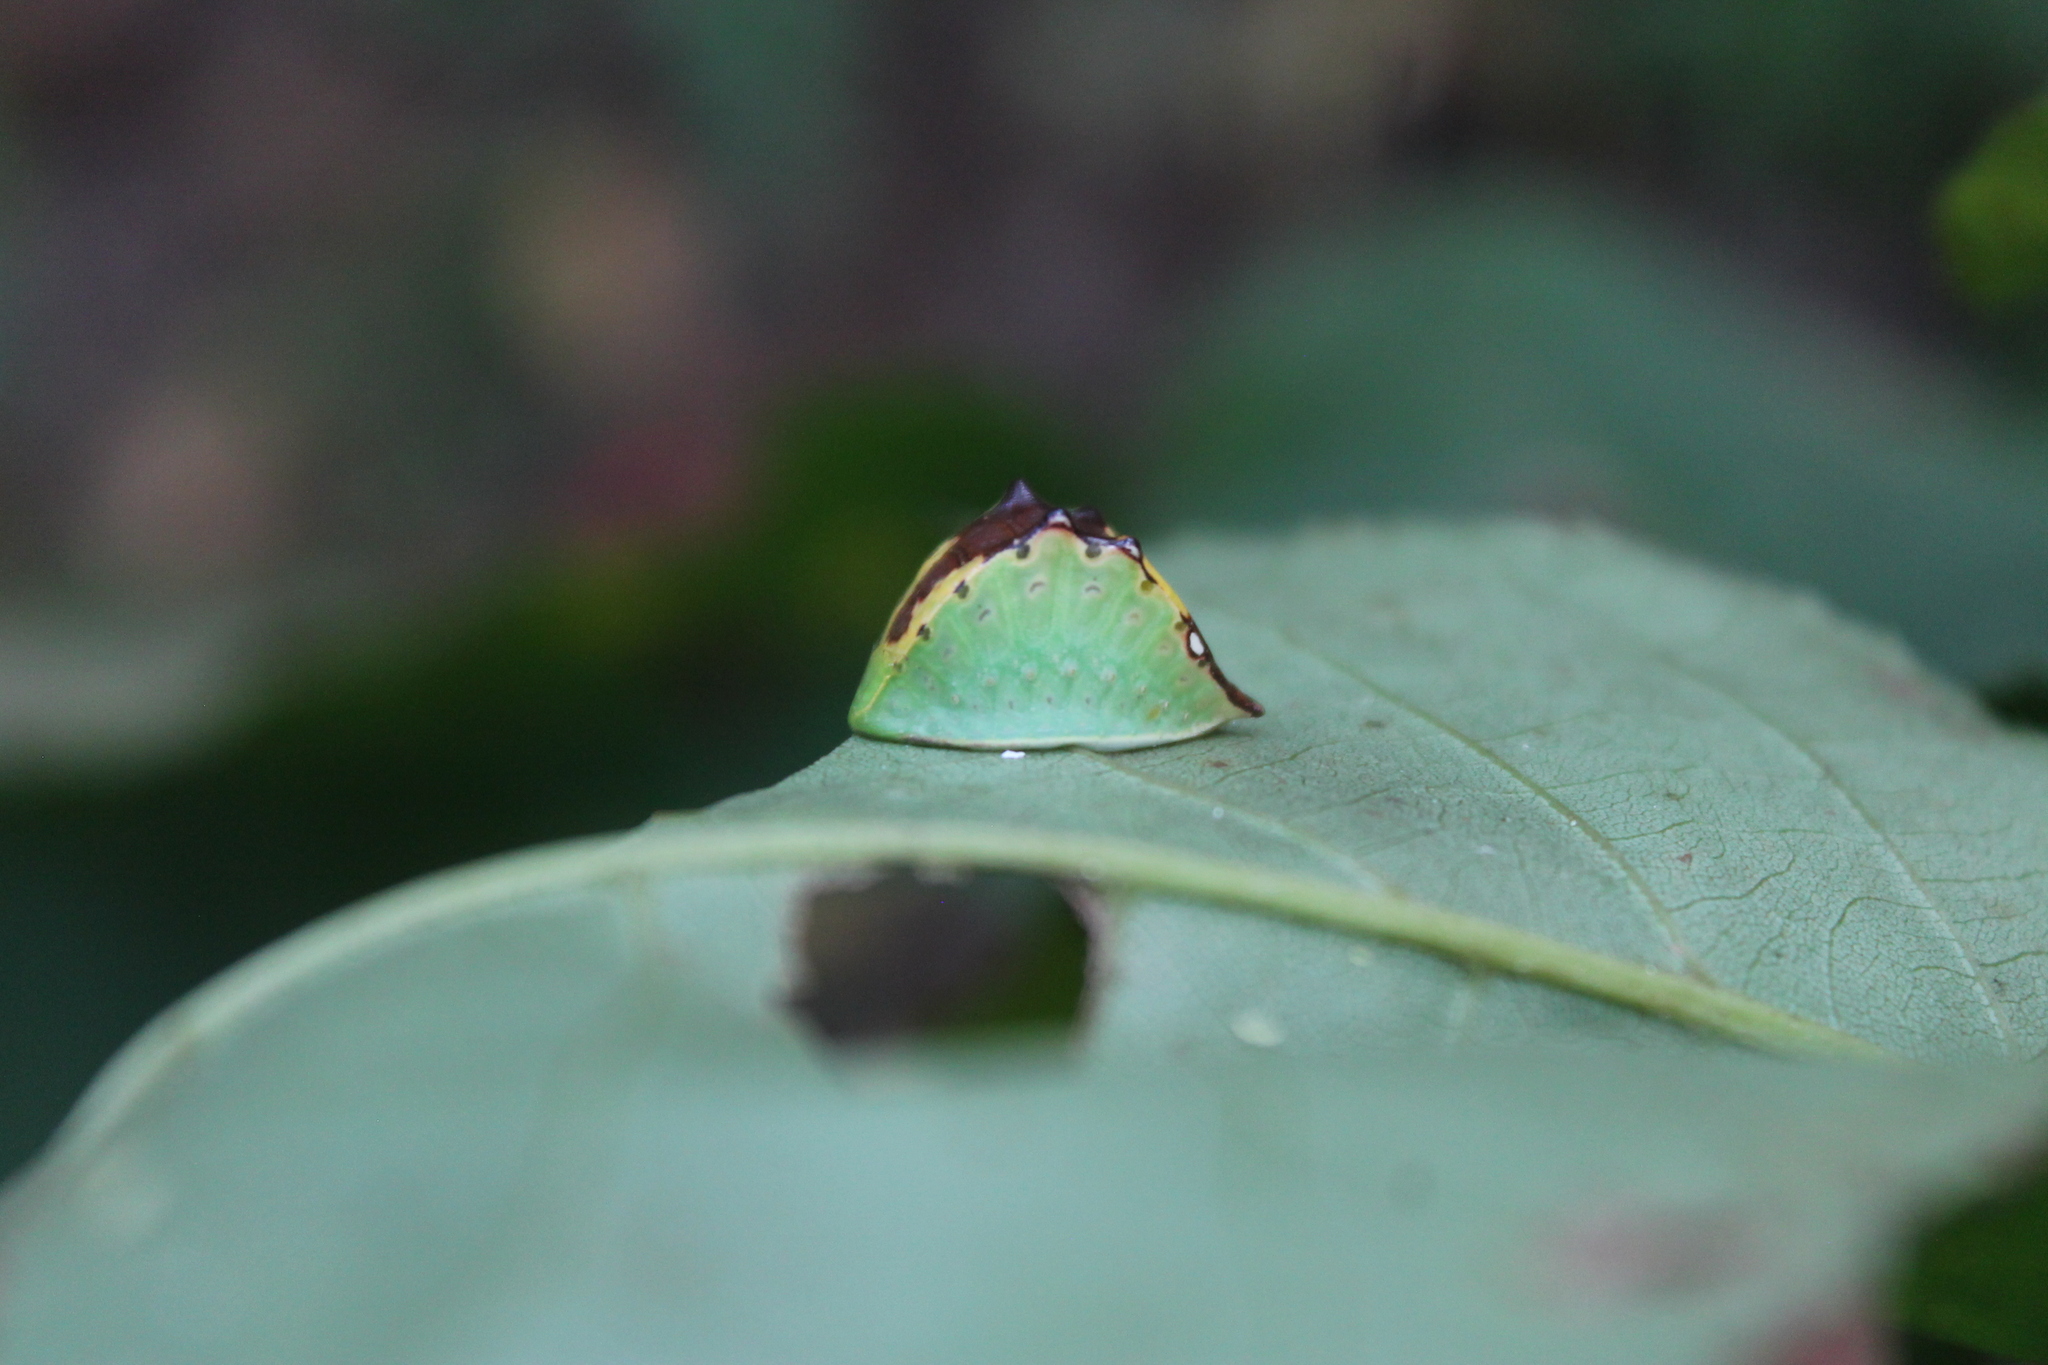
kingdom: Animalia
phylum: Arthropoda
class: Insecta
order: Lepidoptera
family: Limacodidae
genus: Prolimacodes
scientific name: Prolimacodes badia
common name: Skiff moth
